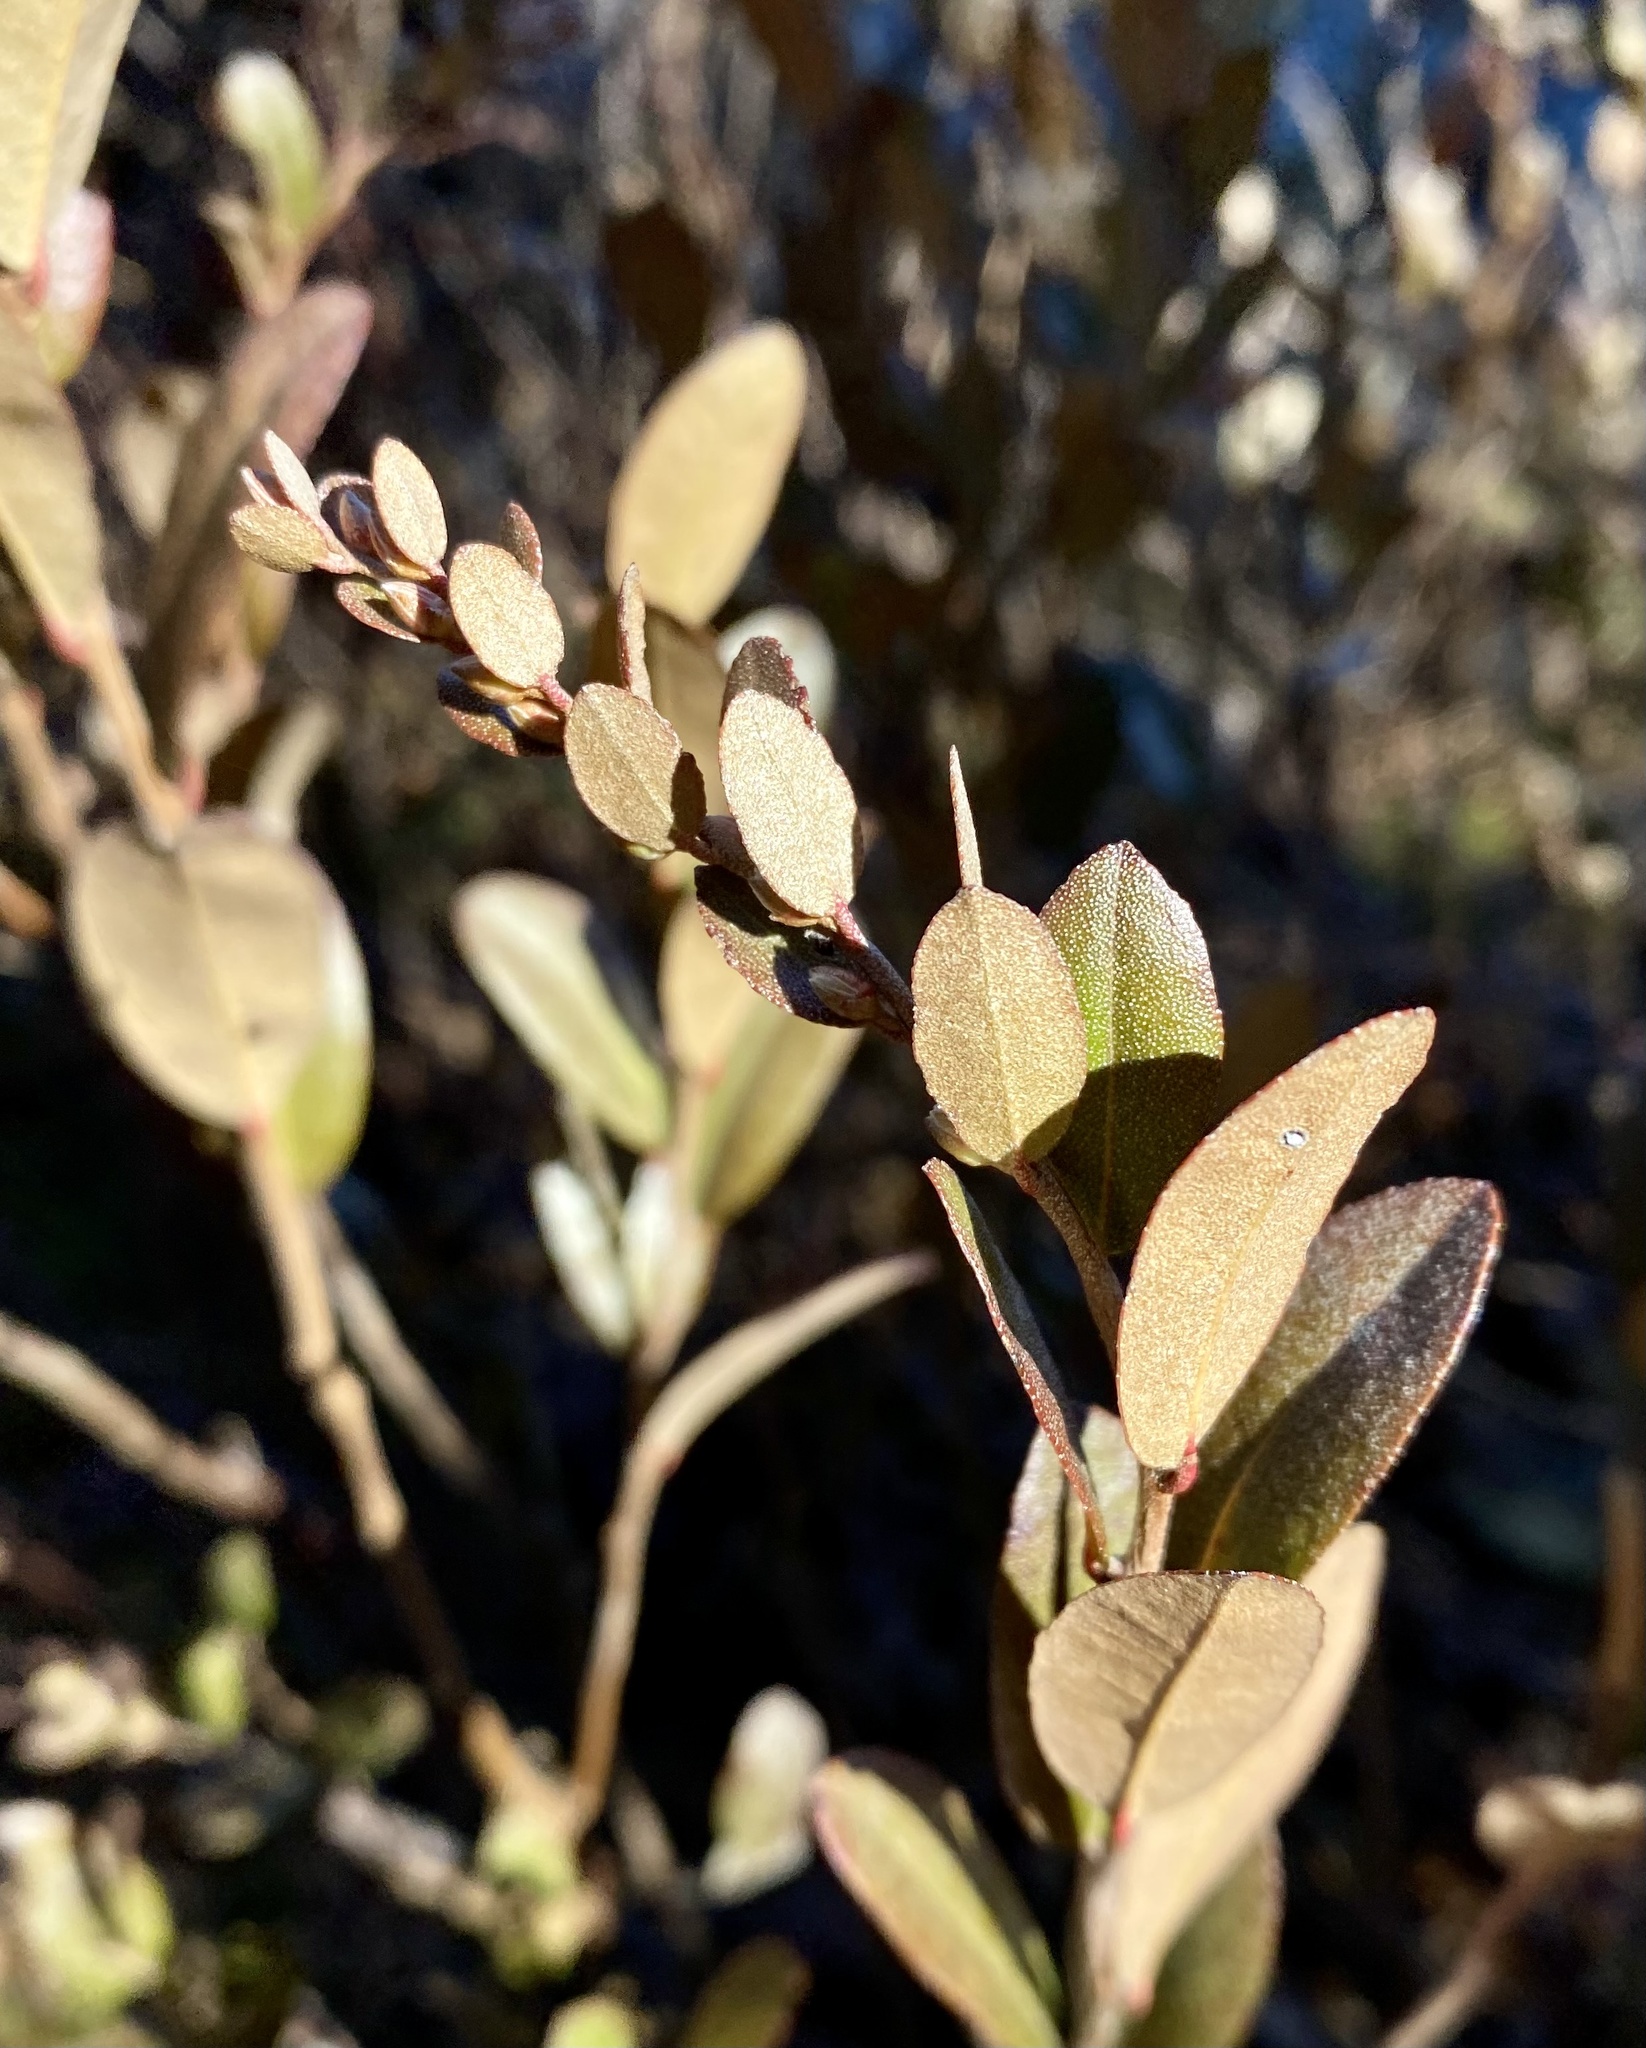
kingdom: Plantae
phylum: Tracheophyta
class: Magnoliopsida
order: Ericales
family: Ericaceae
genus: Chamaedaphne
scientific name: Chamaedaphne calyculata
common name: Leatherleaf
